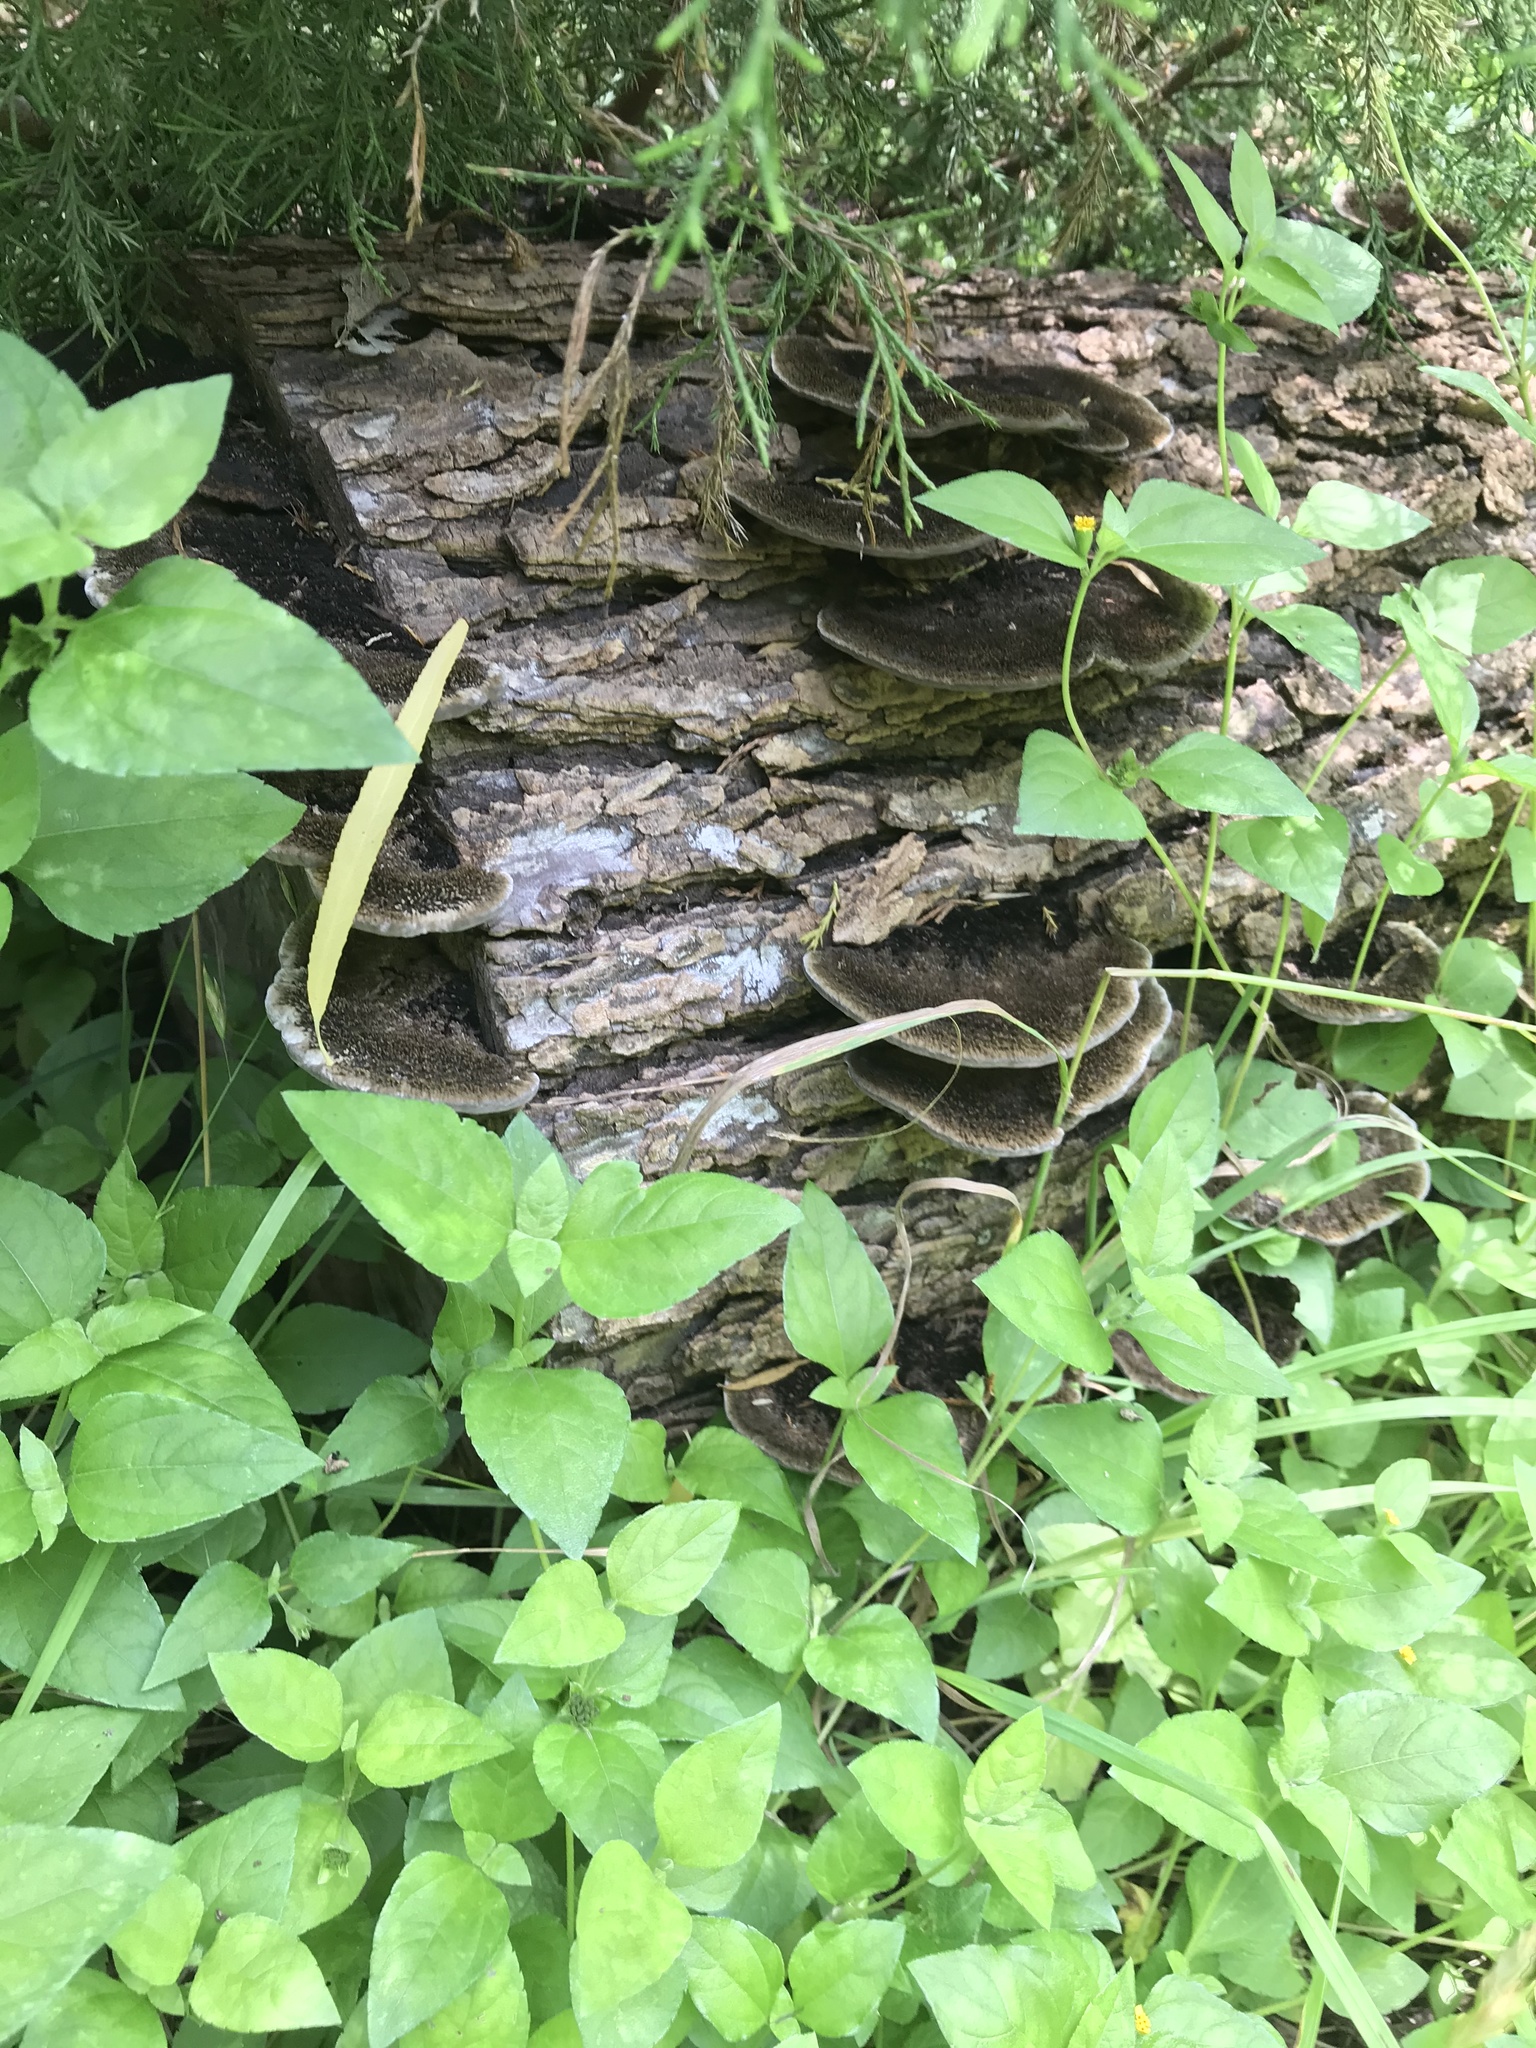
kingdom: Fungi
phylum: Basidiomycota
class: Agaricomycetes
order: Polyporales
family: Cerrenaceae
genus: Cerrena
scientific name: Cerrena hydnoides
